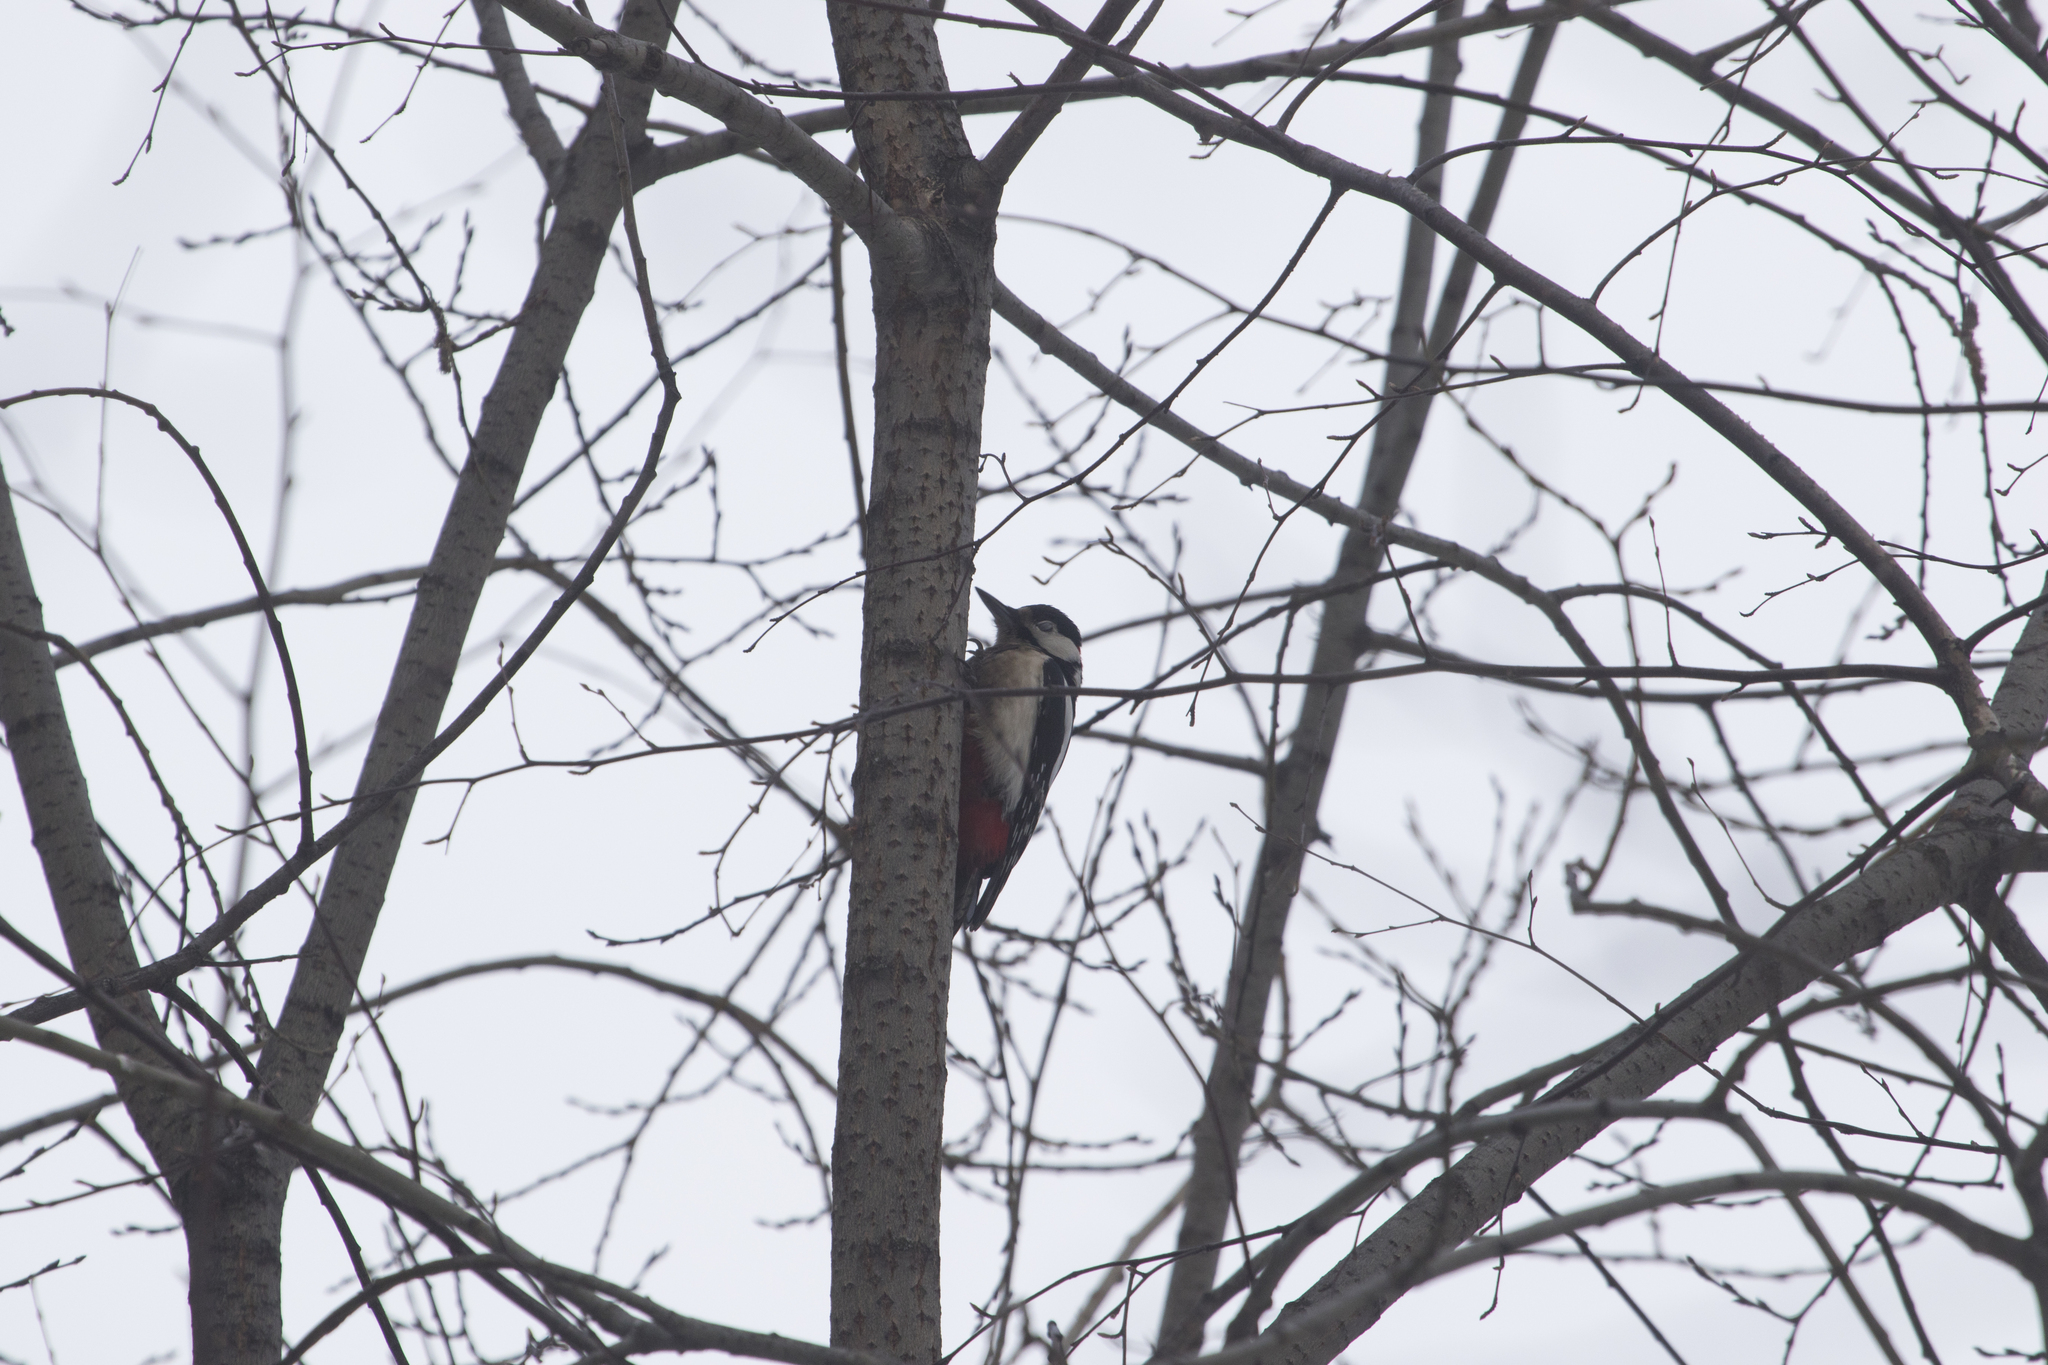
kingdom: Animalia
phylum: Chordata
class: Aves
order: Piciformes
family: Picidae
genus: Dendrocopos
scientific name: Dendrocopos major
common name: Great spotted woodpecker
